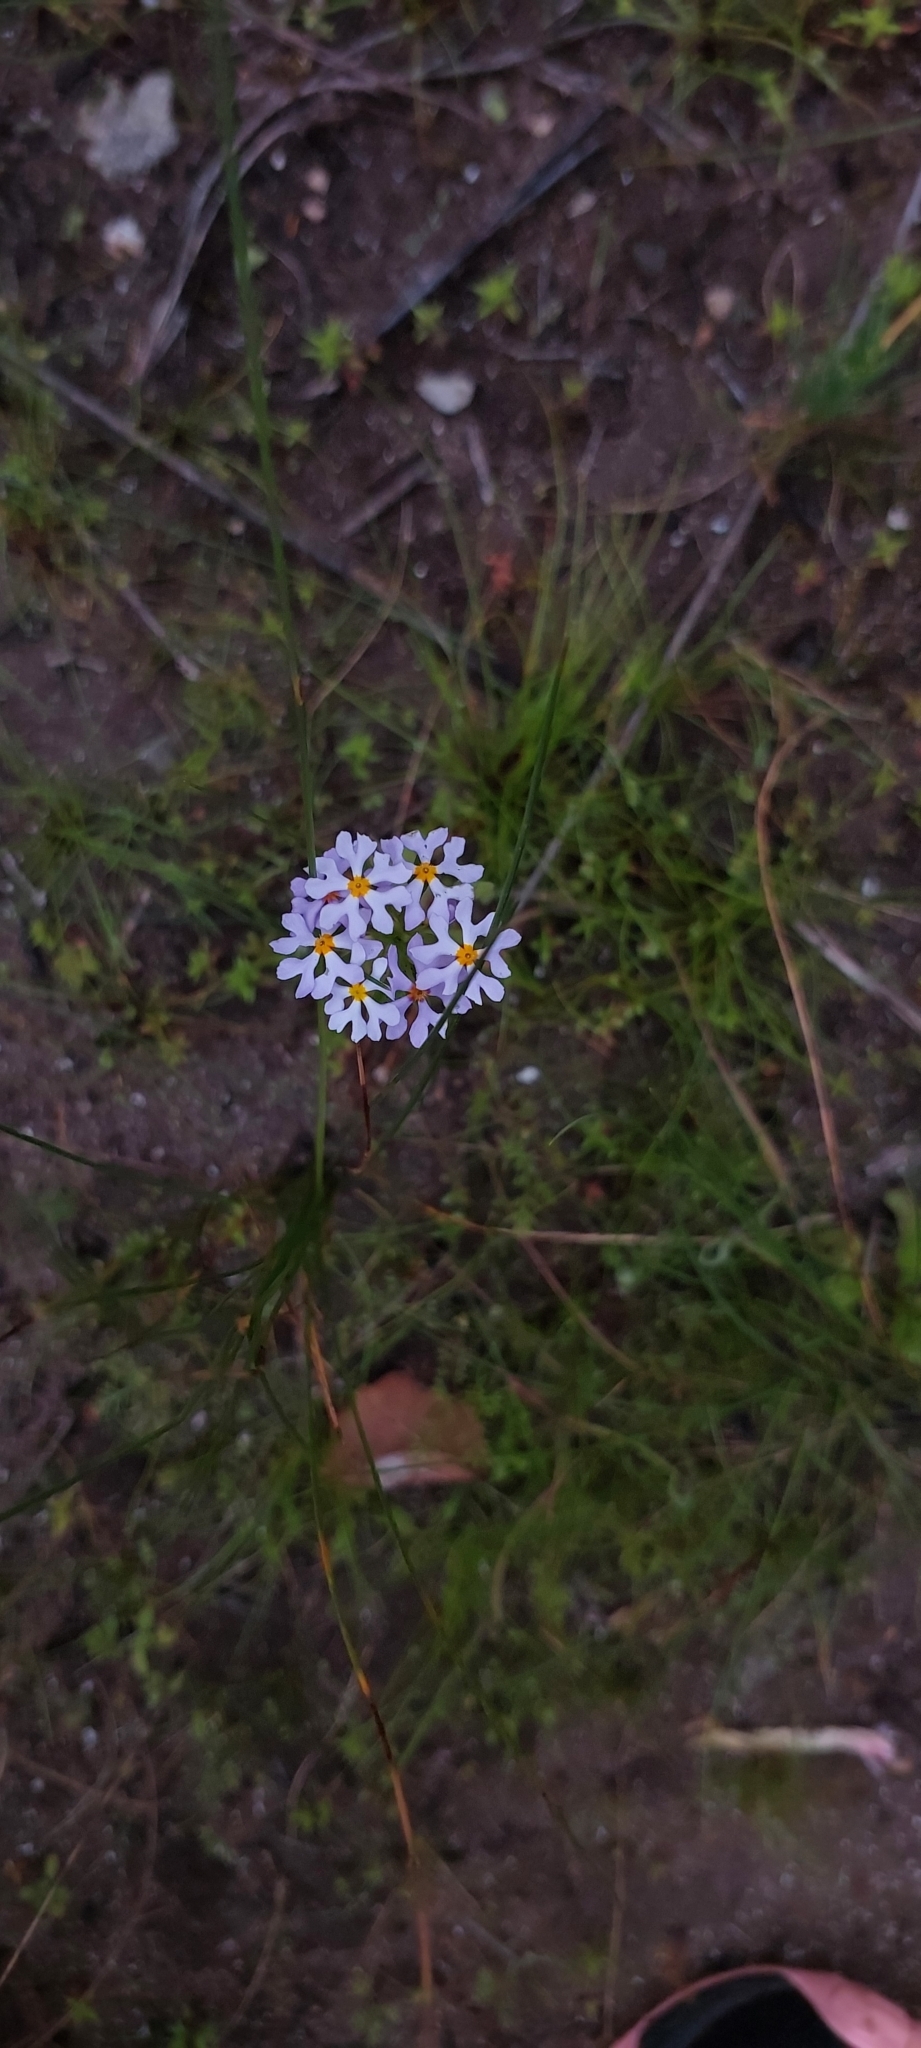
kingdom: Plantae
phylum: Tracheophyta
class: Magnoliopsida
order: Lamiales
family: Scrophulariaceae
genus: Zaluzianskya
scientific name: Zaluzianskya villosa
